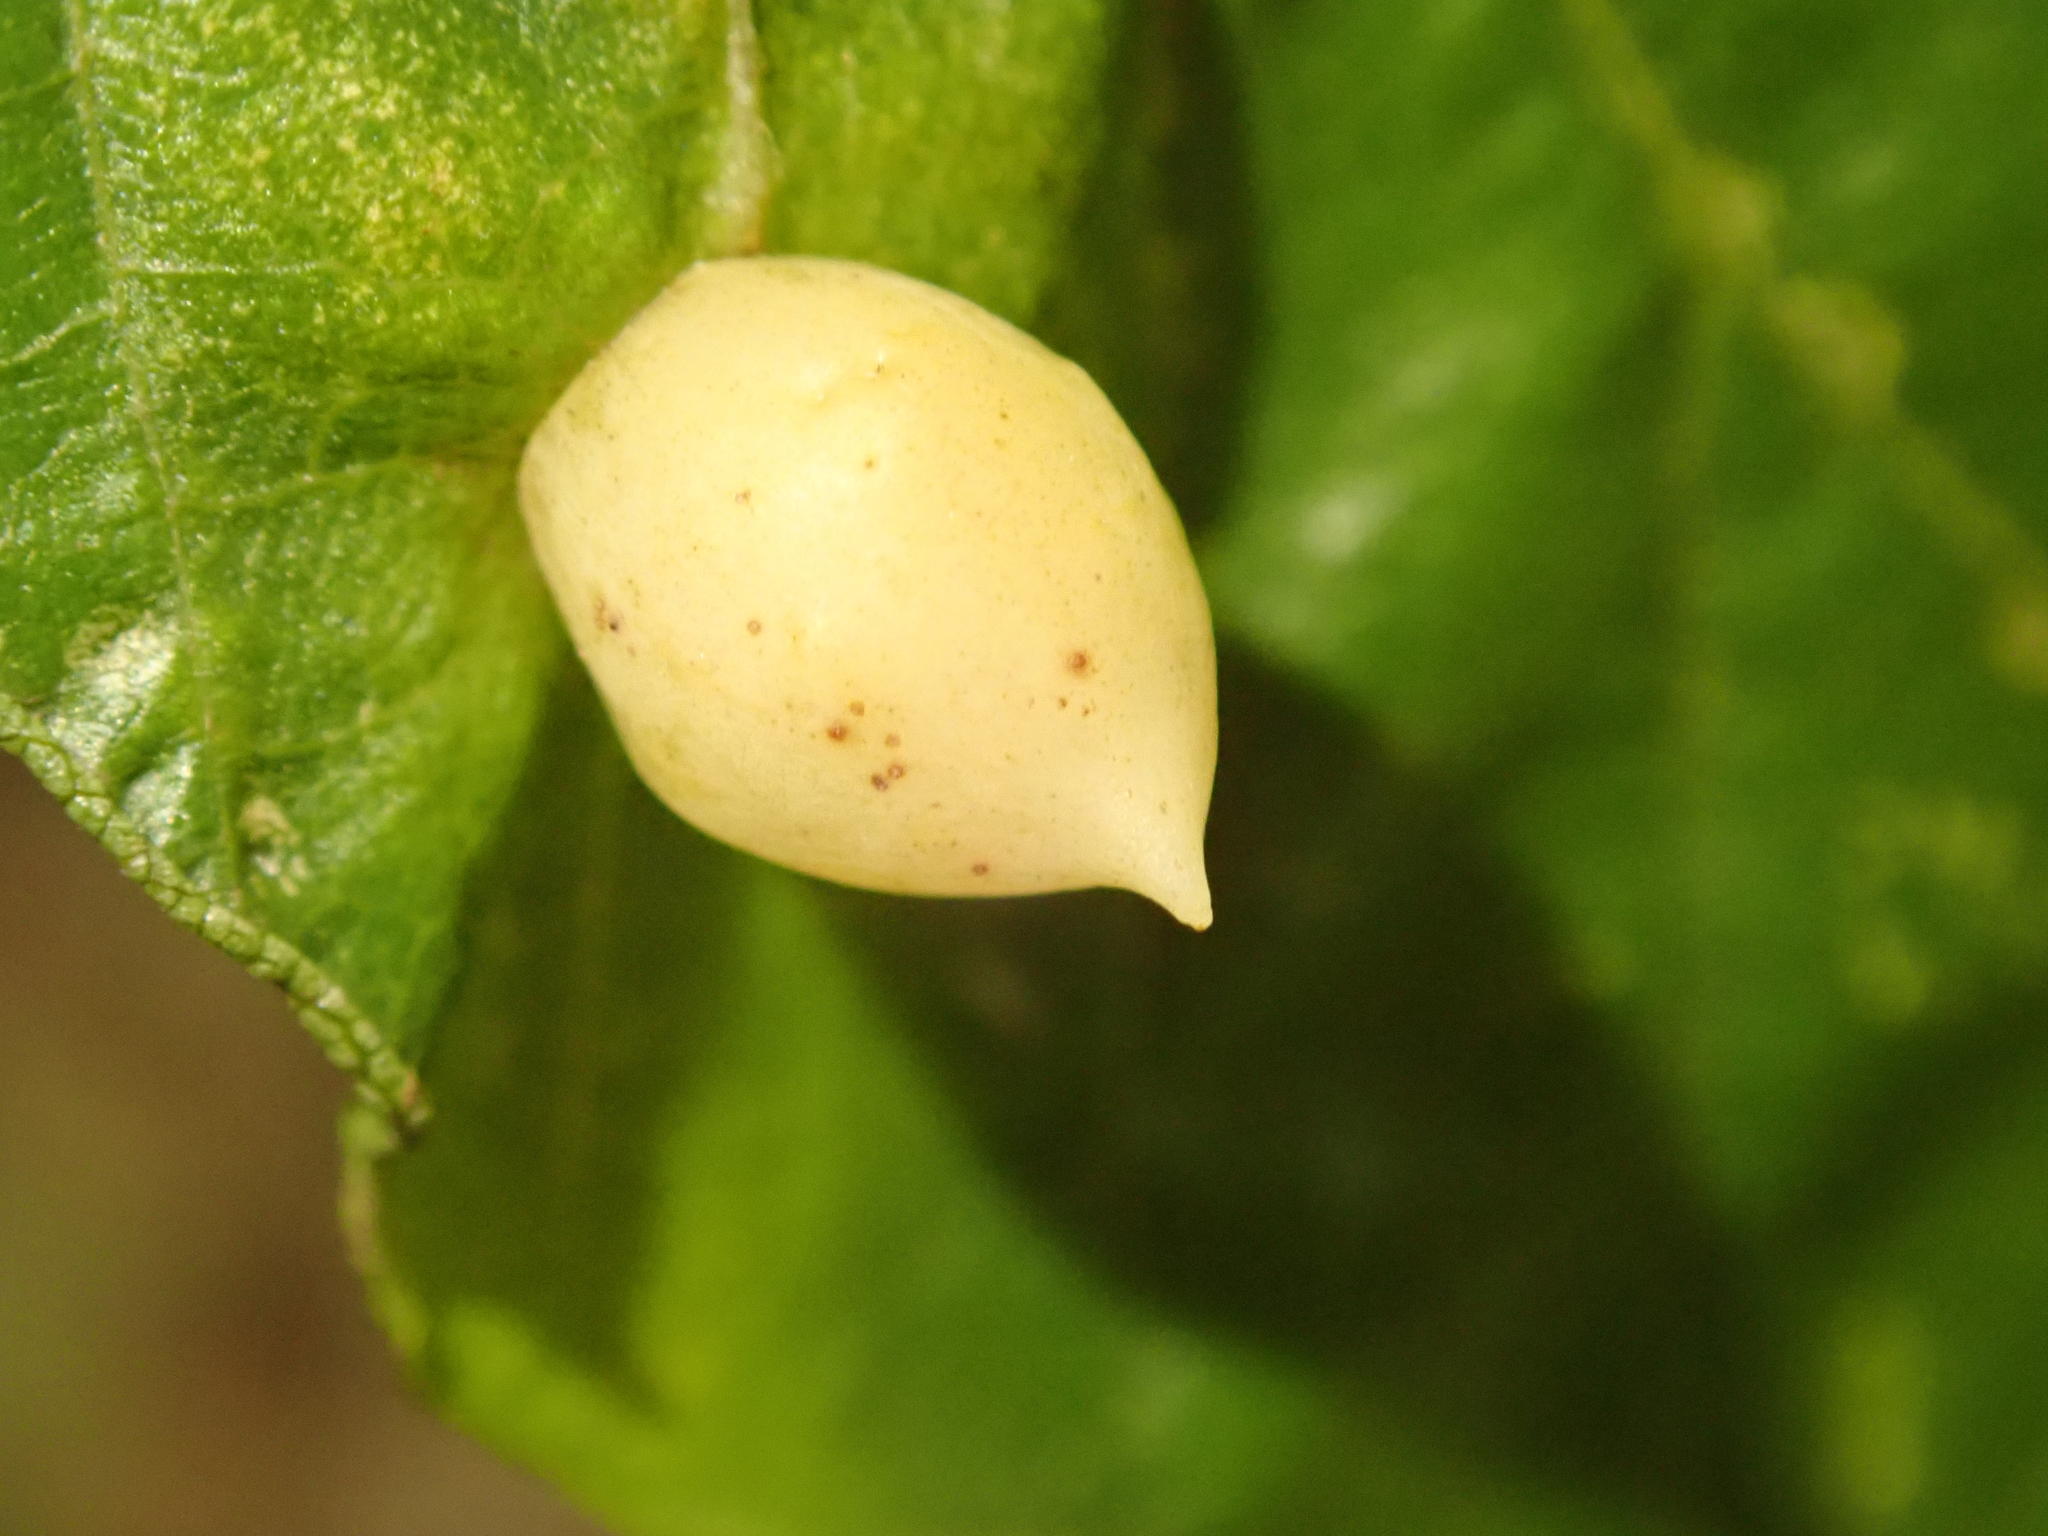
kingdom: Animalia
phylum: Arthropoda
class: Insecta
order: Diptera
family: Cecidomyiidae
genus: Mikiola
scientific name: Mikiola fagi
